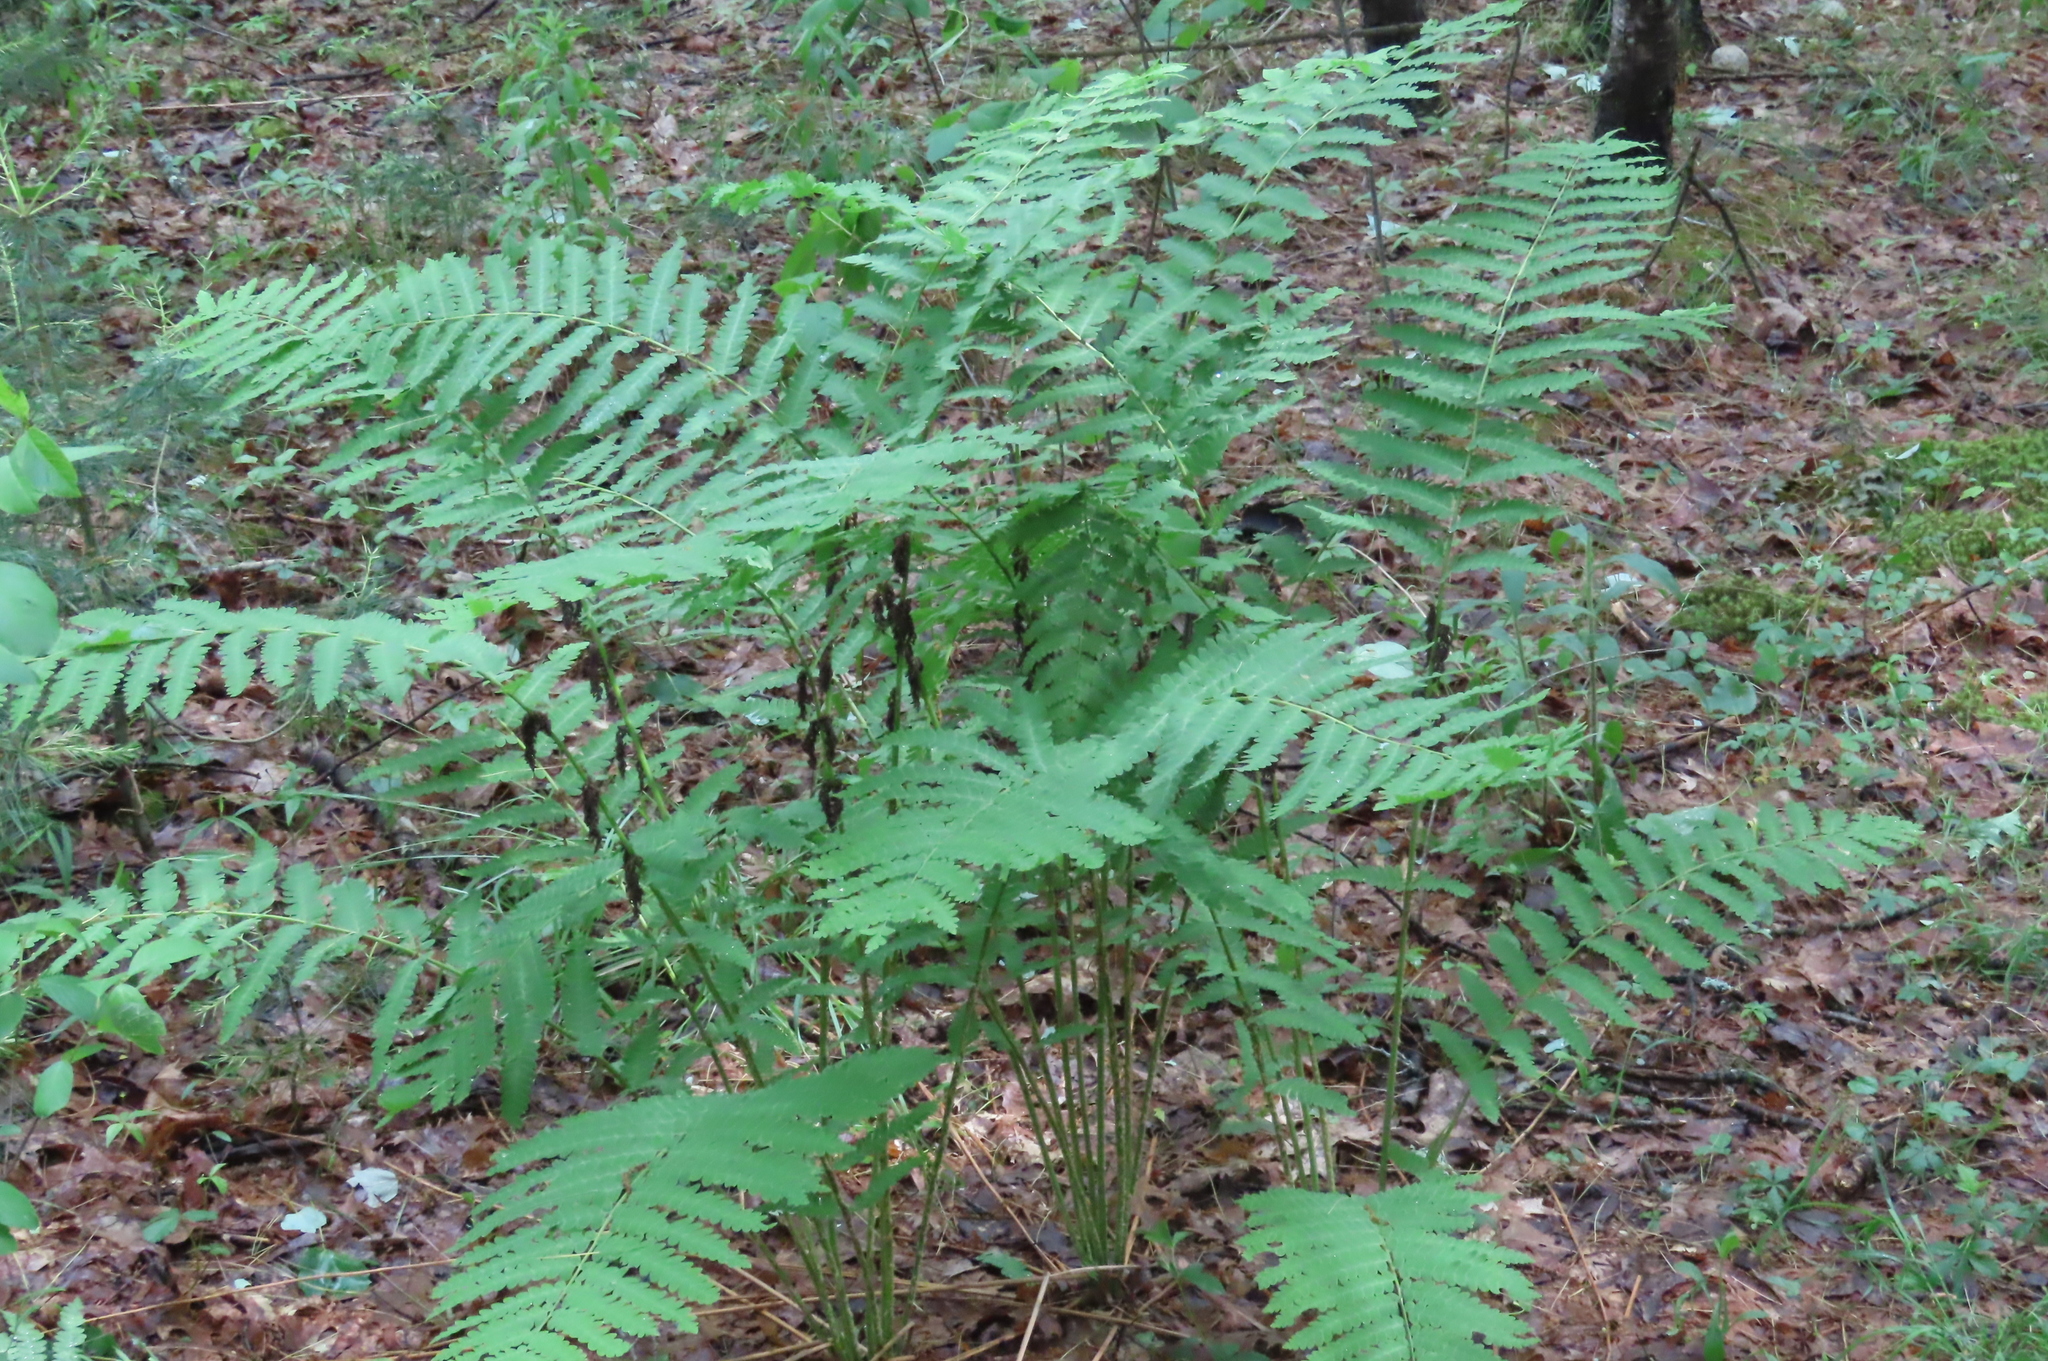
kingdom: Plantae
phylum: Tracheophyta
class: Polypodiopsida
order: Osmundales
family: Osmundaceae
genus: Claytosmunda
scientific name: Claytosmunda claytoniana
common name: Clayton's fern
